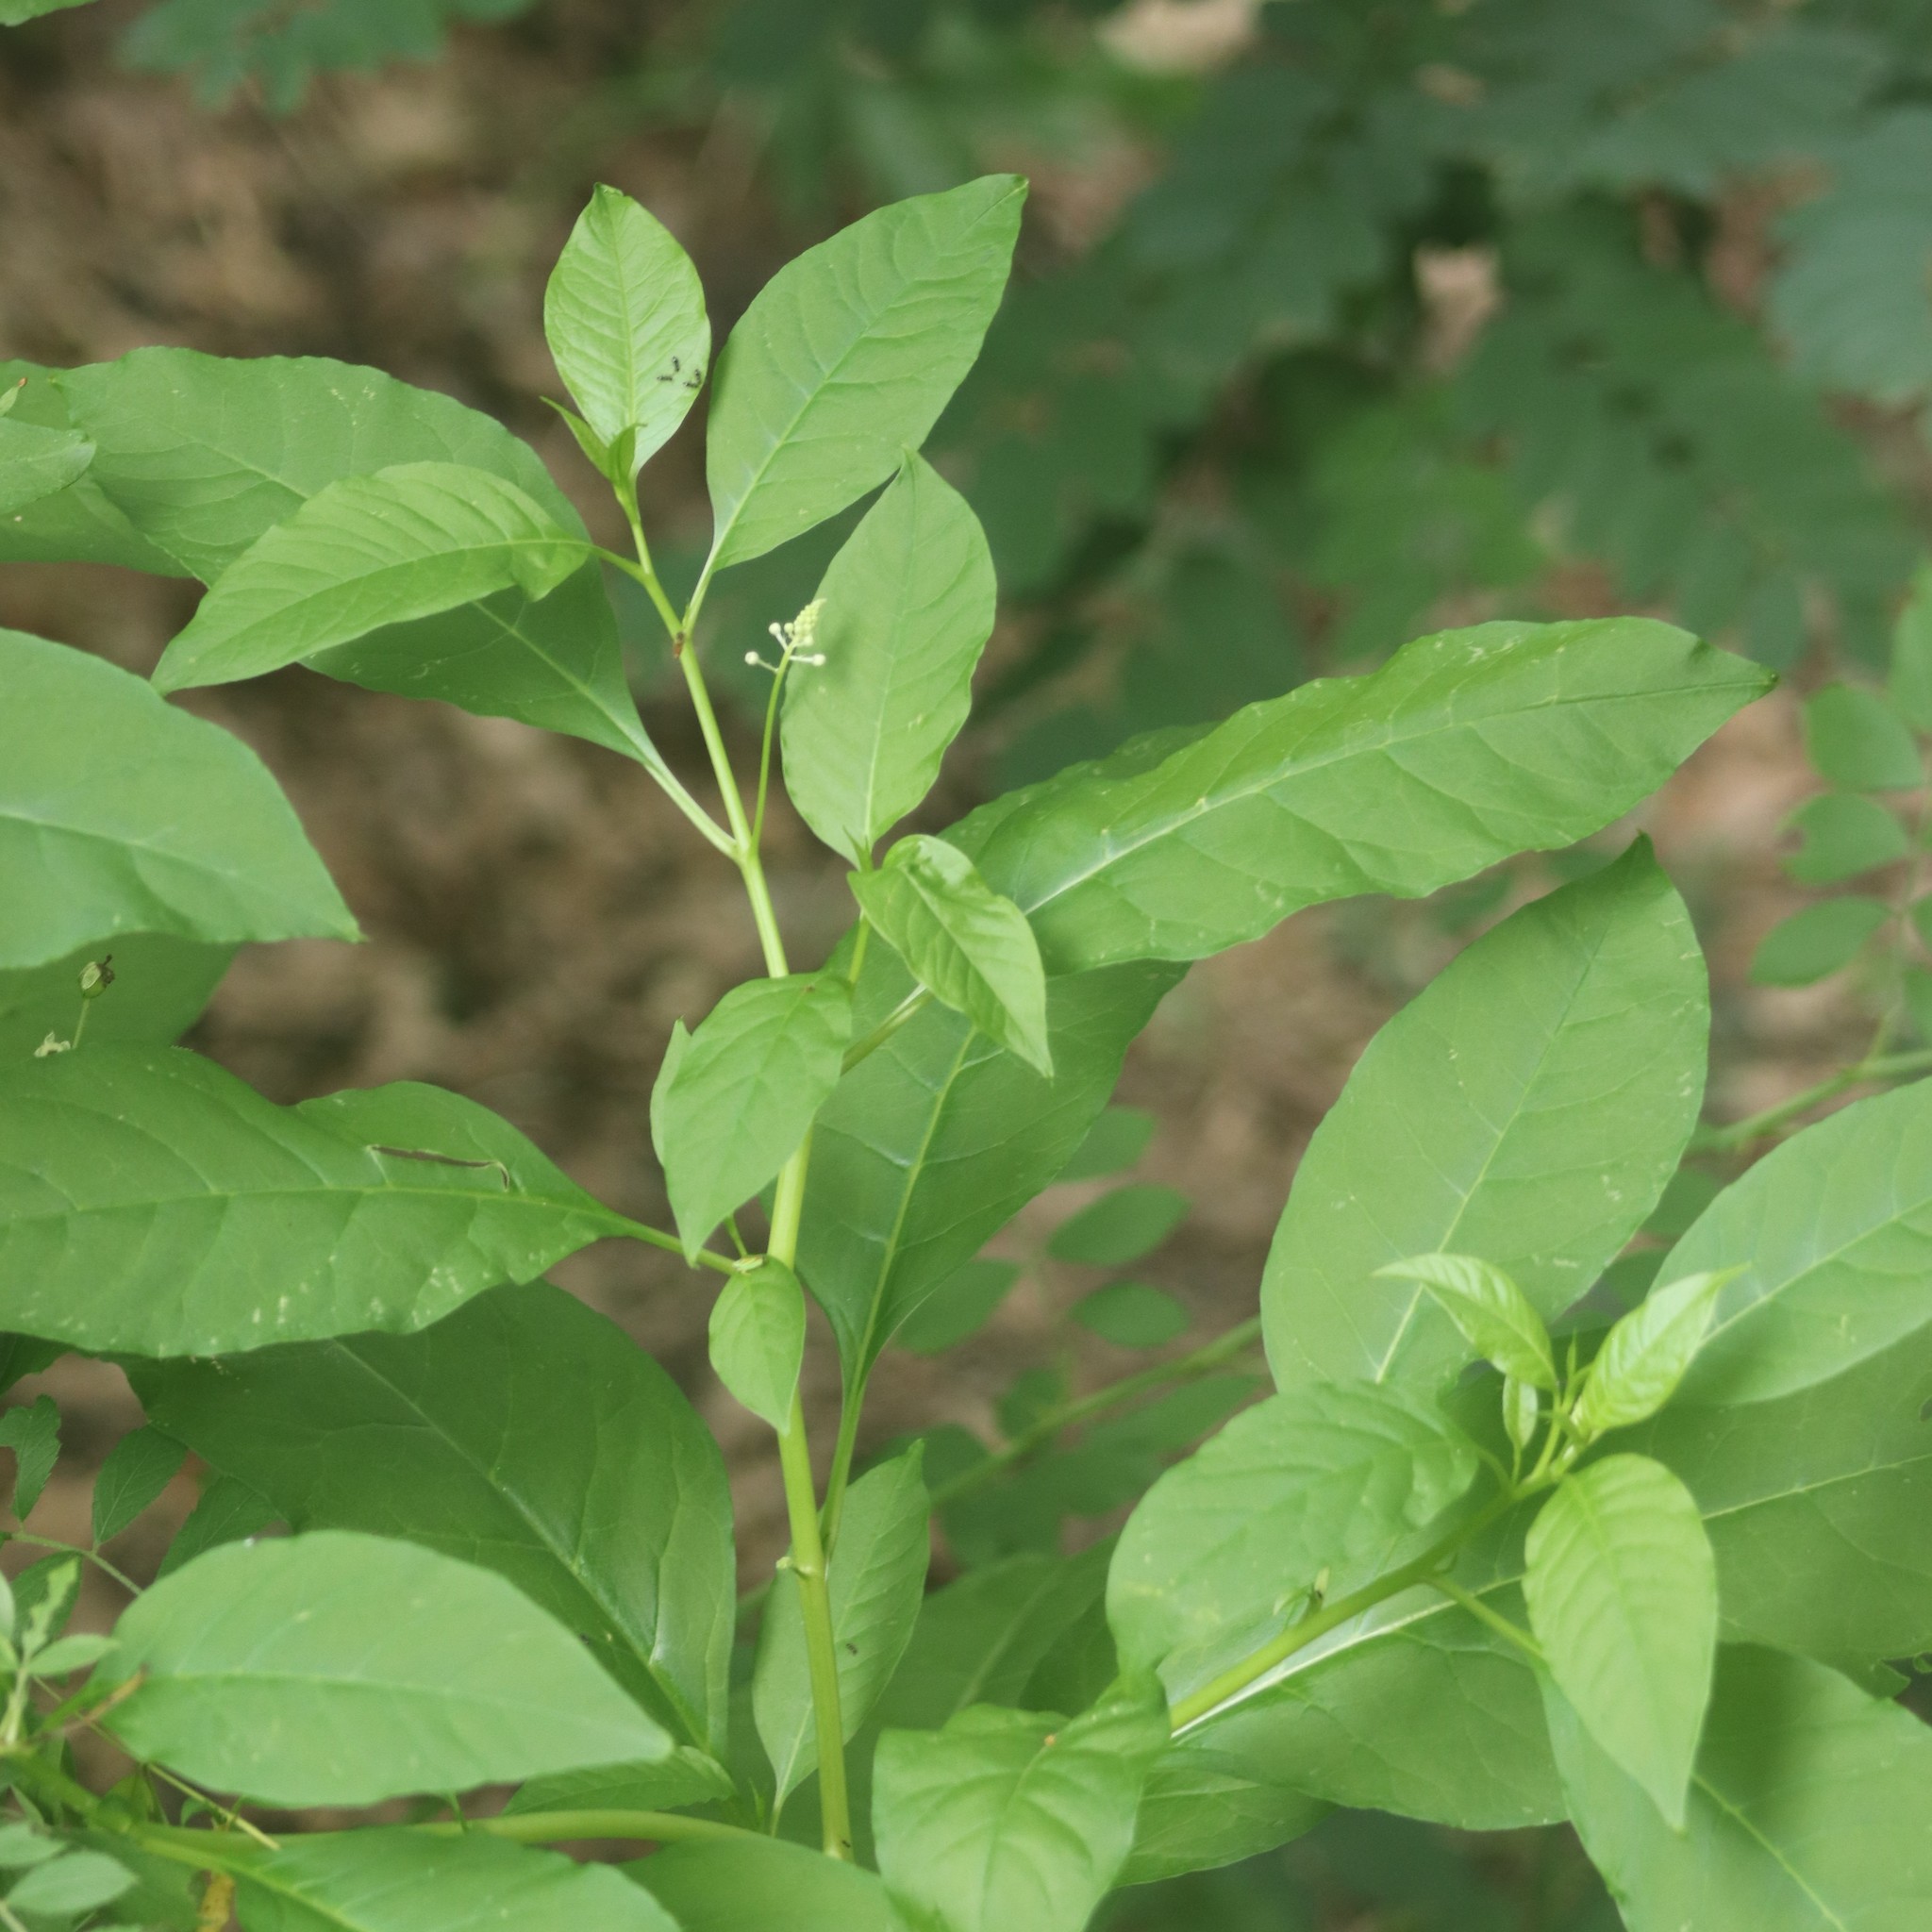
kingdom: Plantae
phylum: Tracheophyta
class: Magnoliopsida
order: Caryophyllales
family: Phytolaccaceae
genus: Phytolacca
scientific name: Phytolacca americana
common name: American pokeweed
